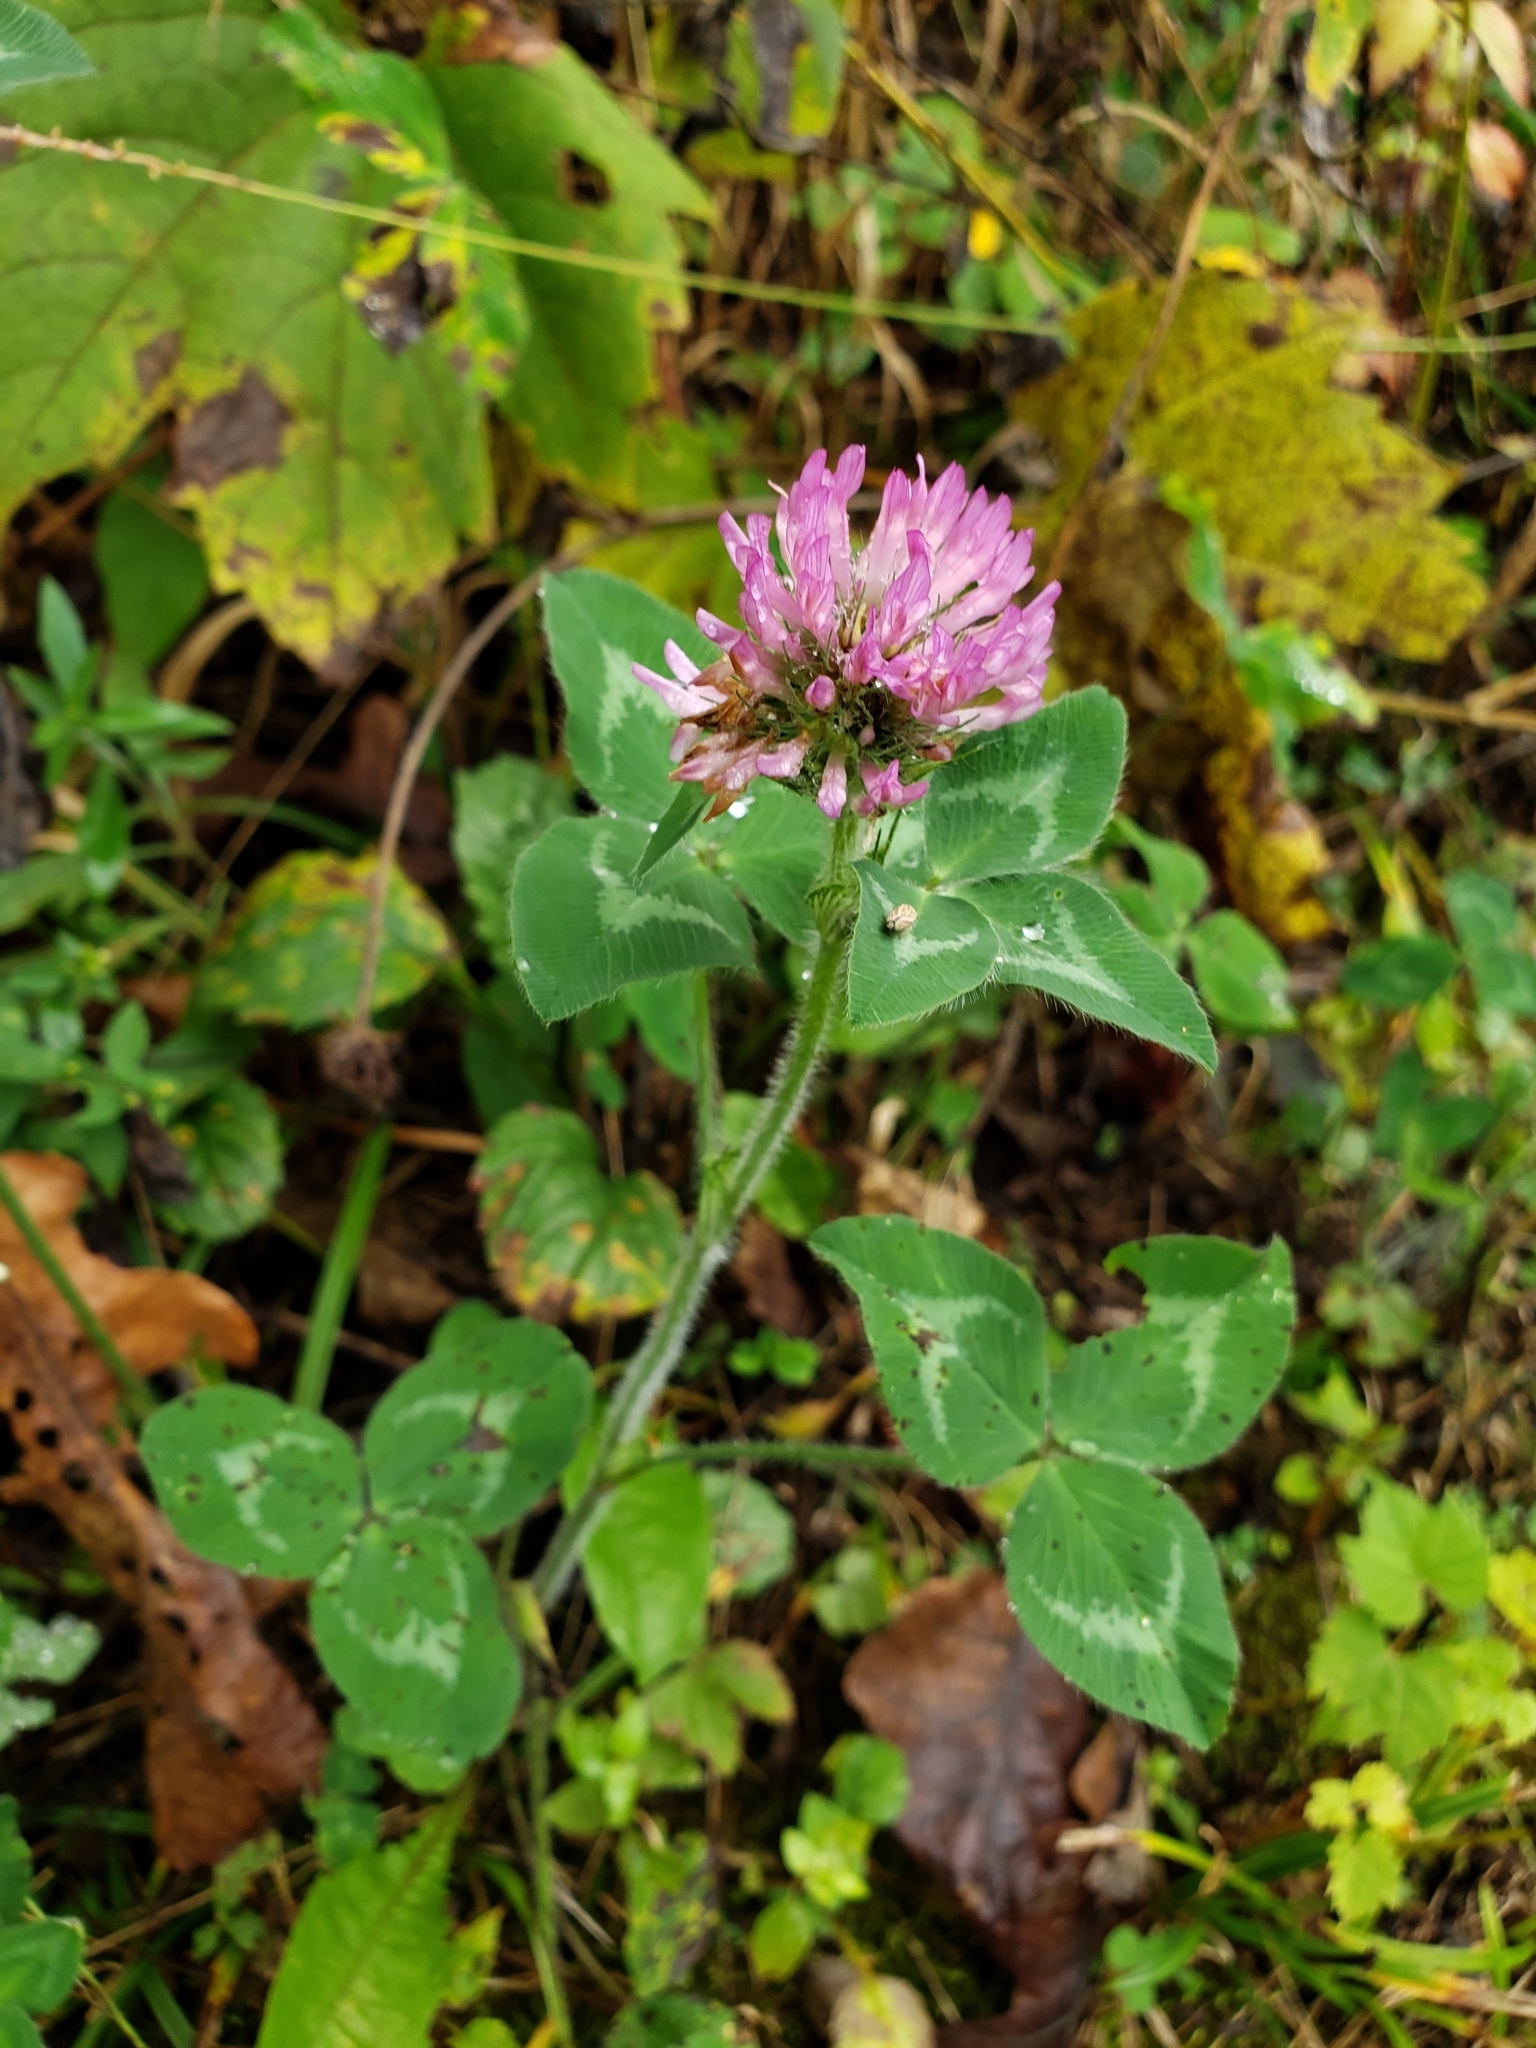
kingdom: Plantae
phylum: Tracheophyta
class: Magnoliopsida
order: Fabales
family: Fabaceae
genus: Trifolium
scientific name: Trifolium pratense
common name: Red clover
